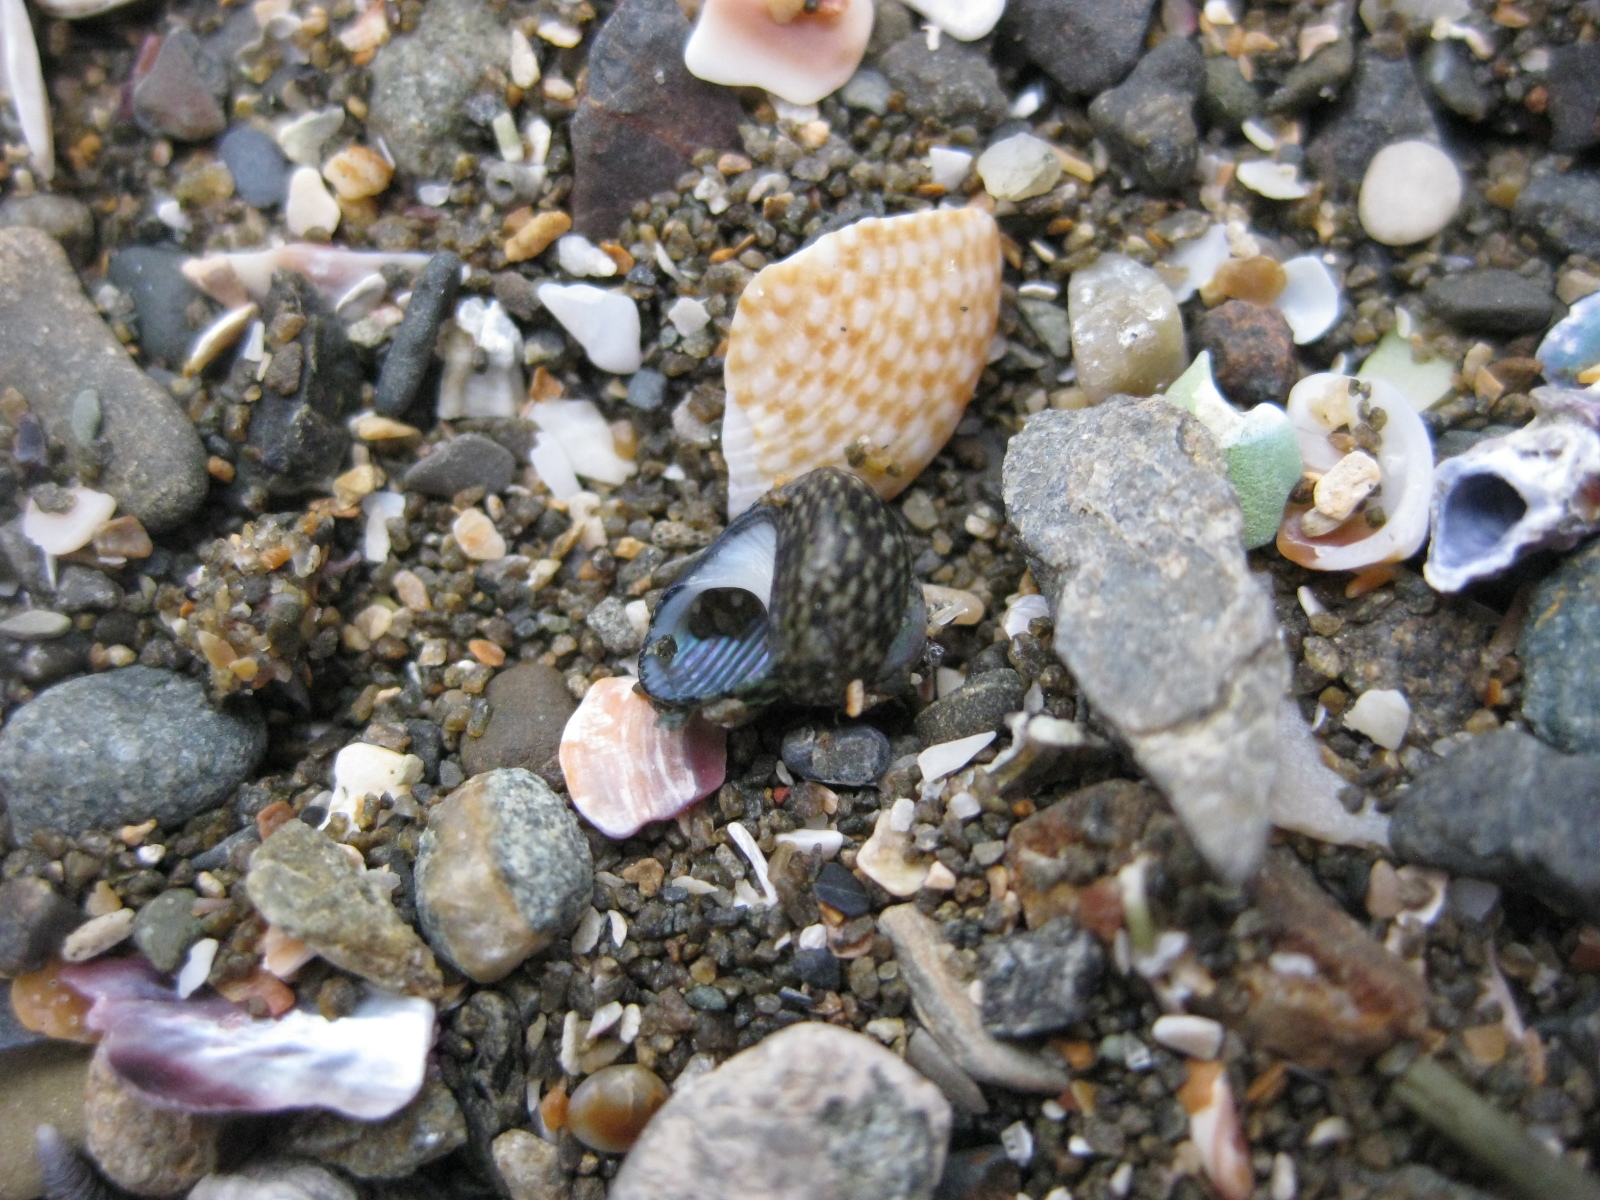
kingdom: Animalia
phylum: Mollusca
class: Gastropoda
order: Trochida
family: Trochidae
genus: Micrelenchus
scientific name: Micrelenchus tessellatus
